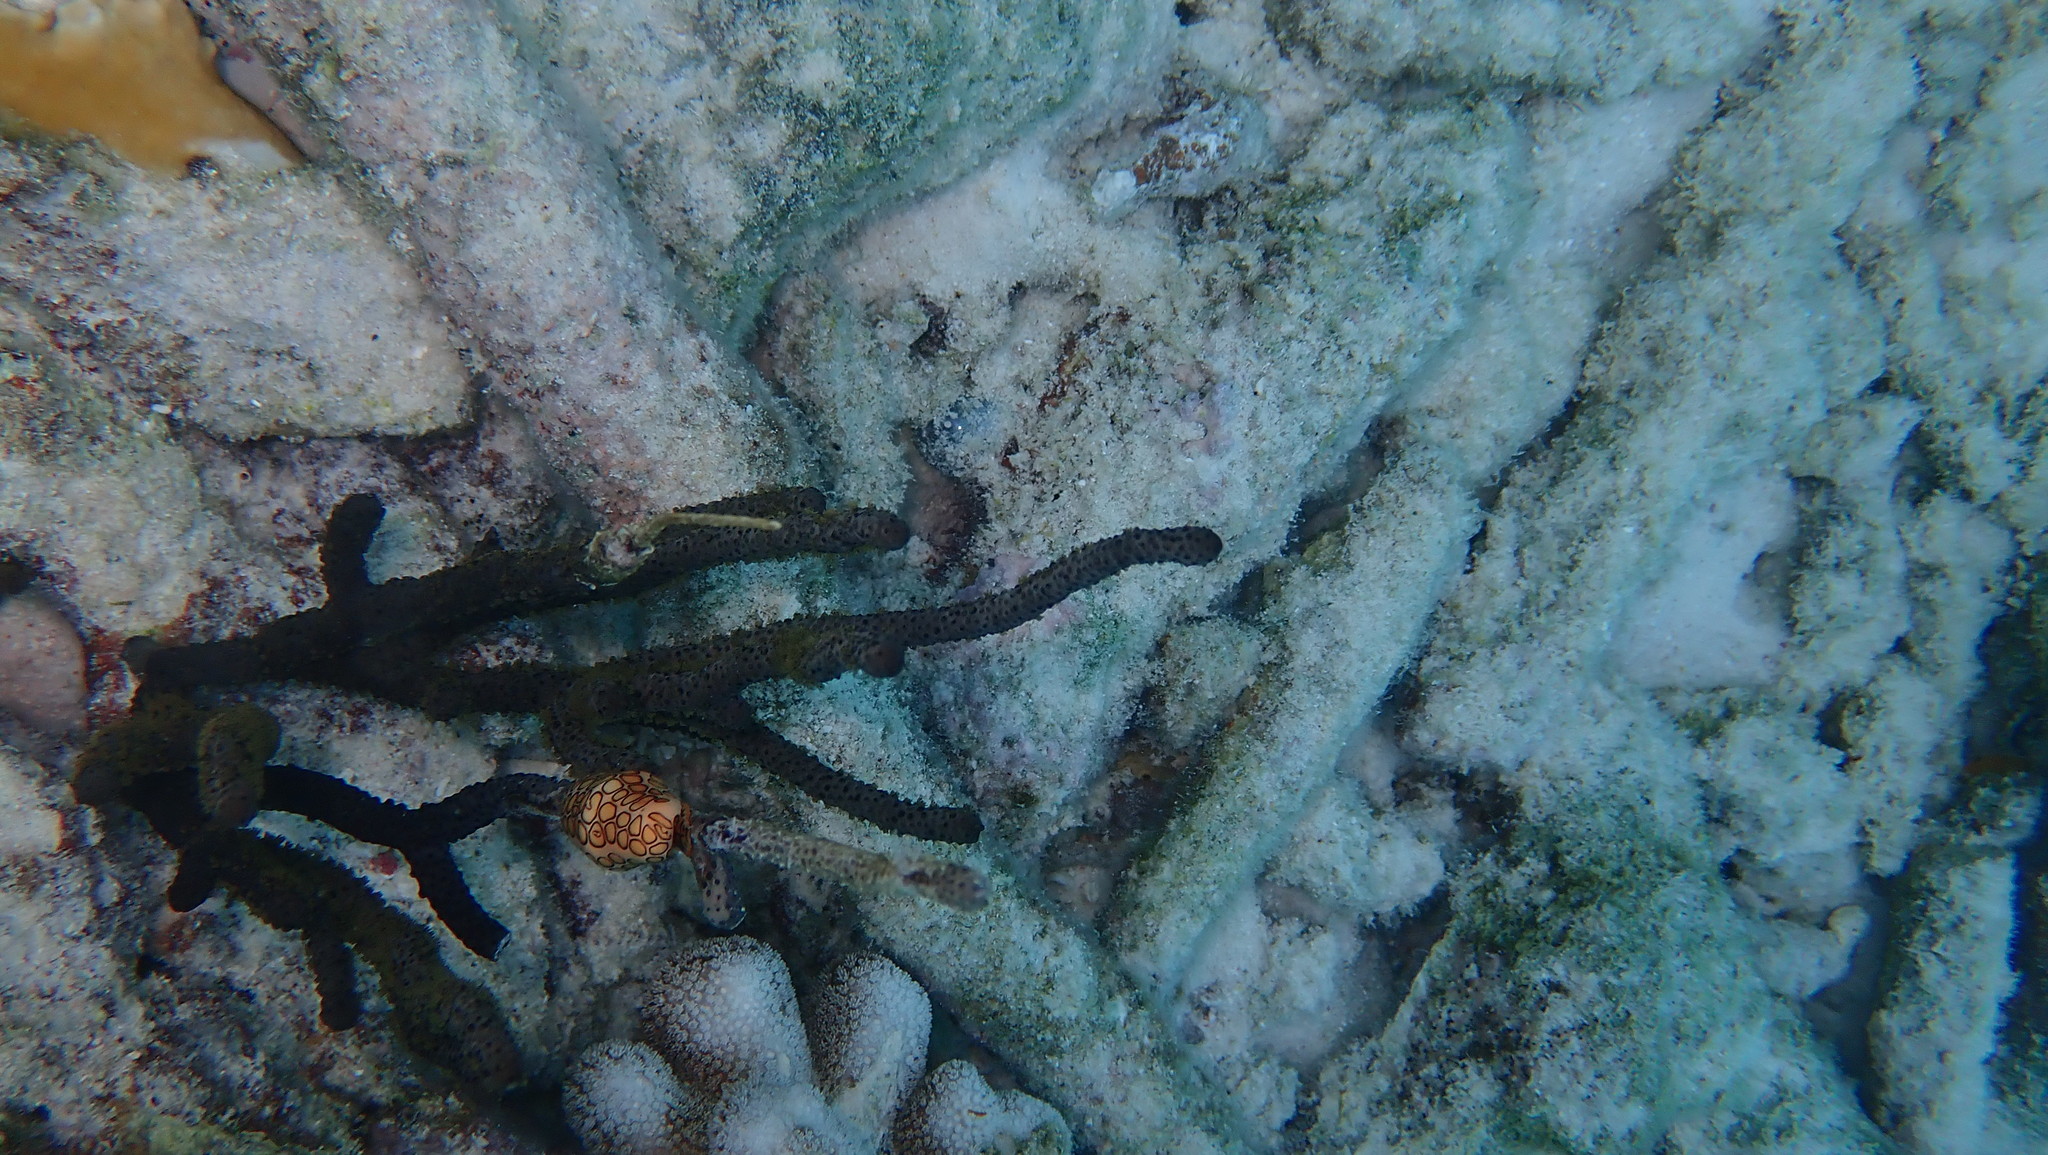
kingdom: Animalia
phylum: Mollusca
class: Gastropoda
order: Littorinimorpha
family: Ovulidae
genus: Cyphoma
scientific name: Cyphoma gibbosum
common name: Flamingo tongue
